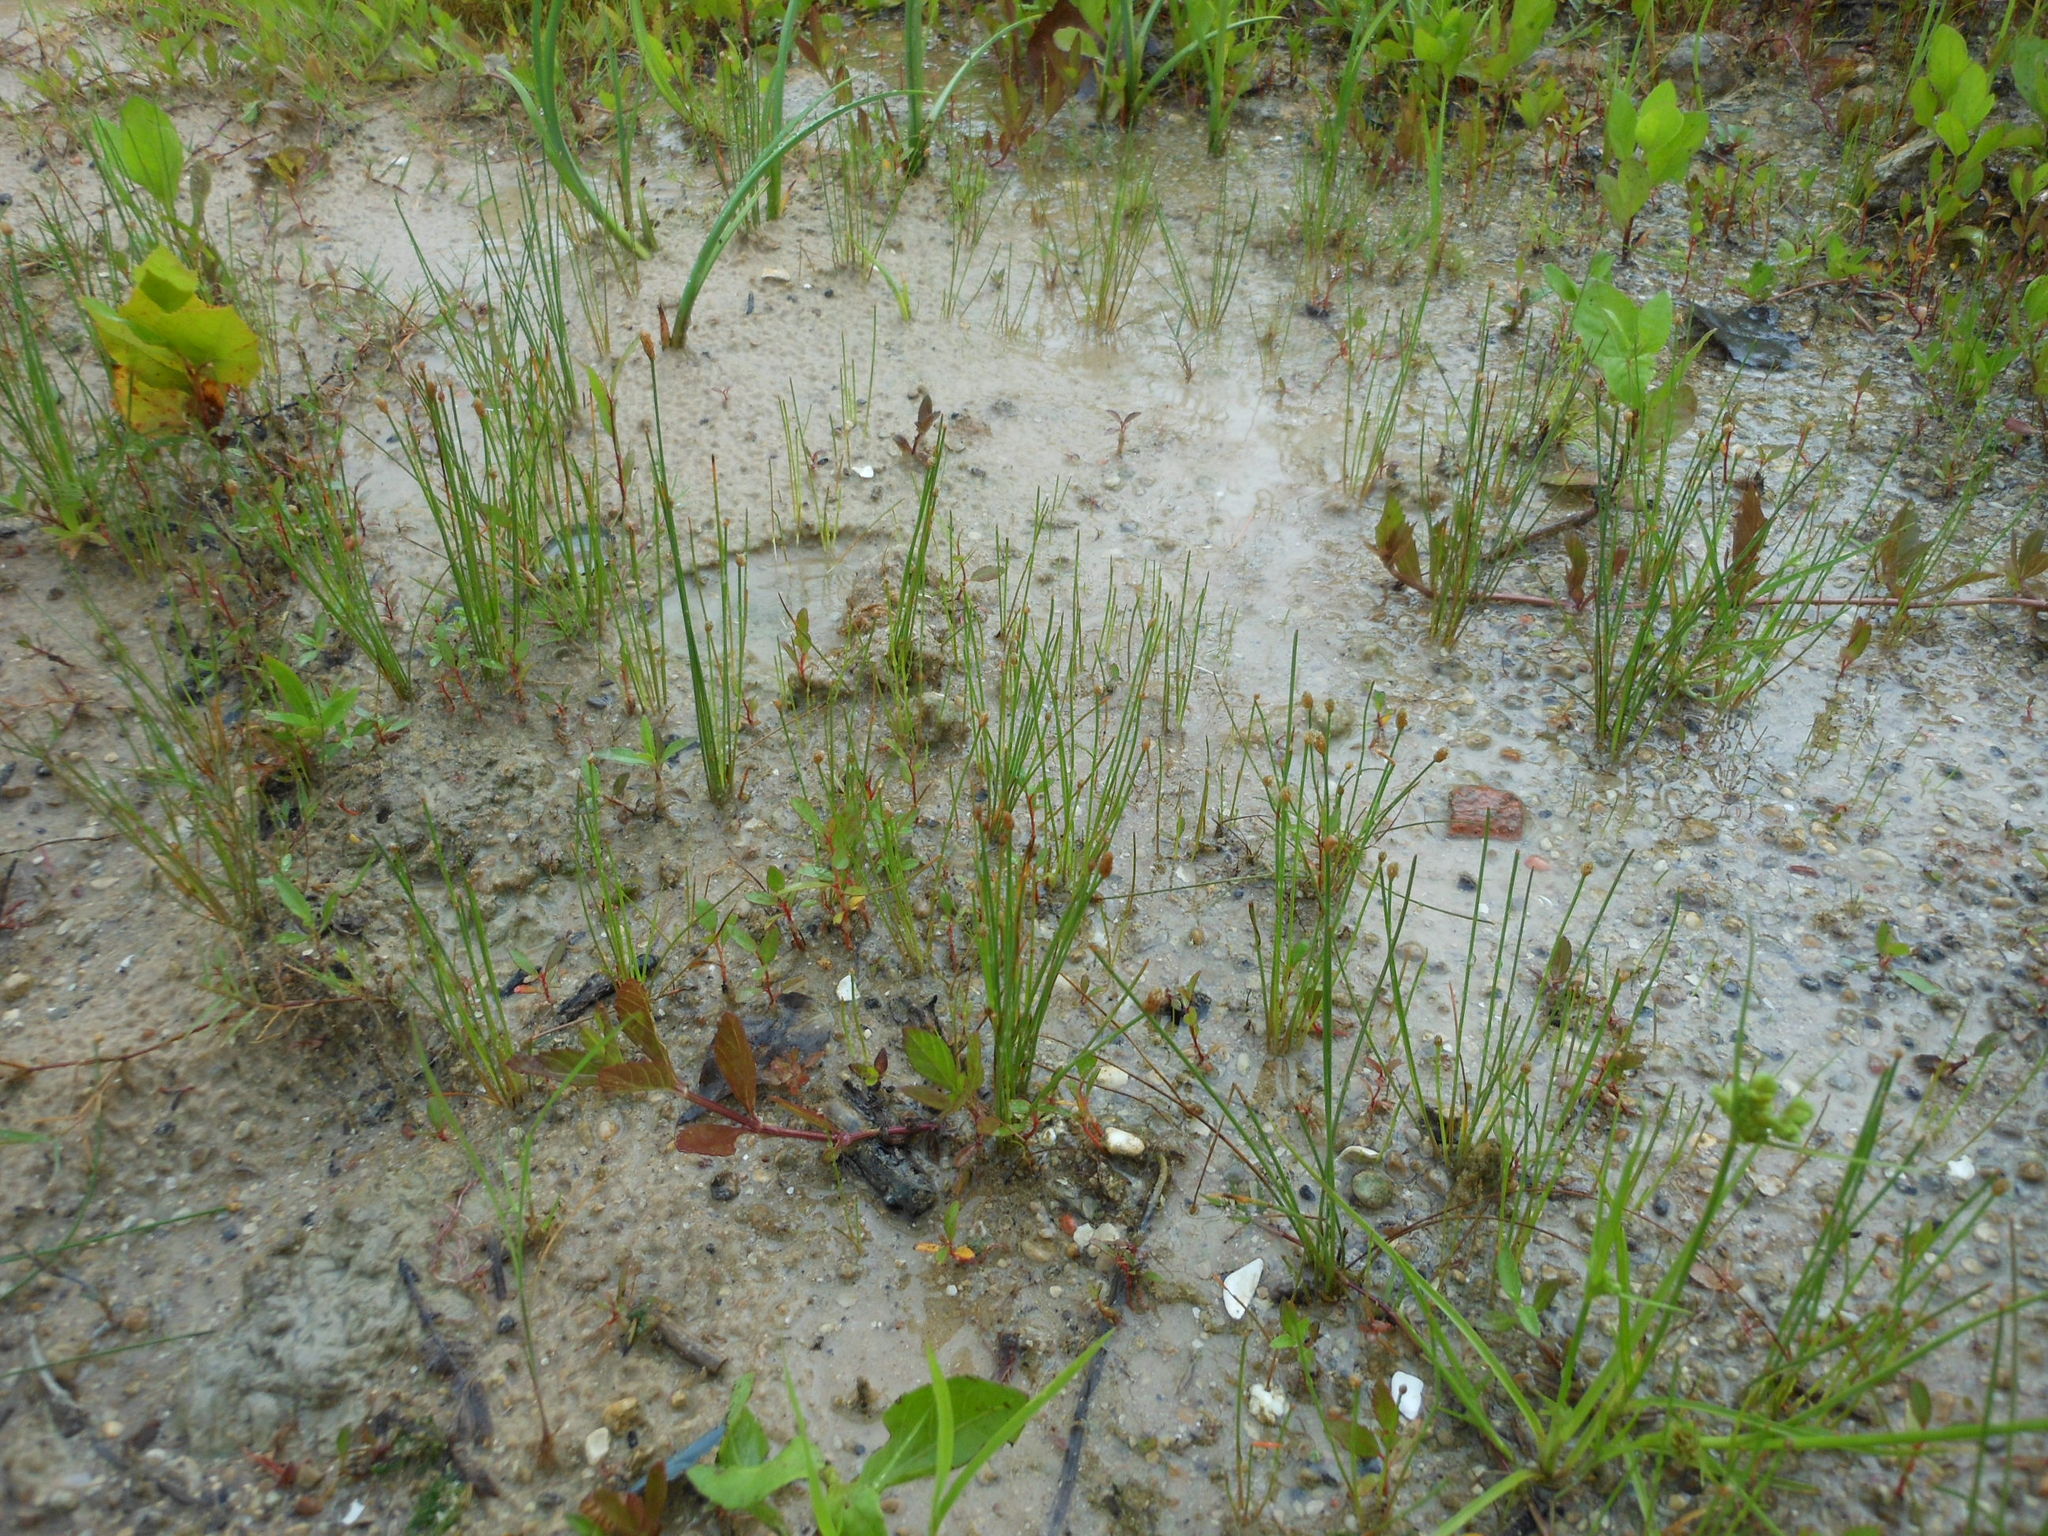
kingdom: Plantae
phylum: Tracheophyta
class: Liliopsida
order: Poales
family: Cyperaceae
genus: Eleocharis
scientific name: Eleocharis
